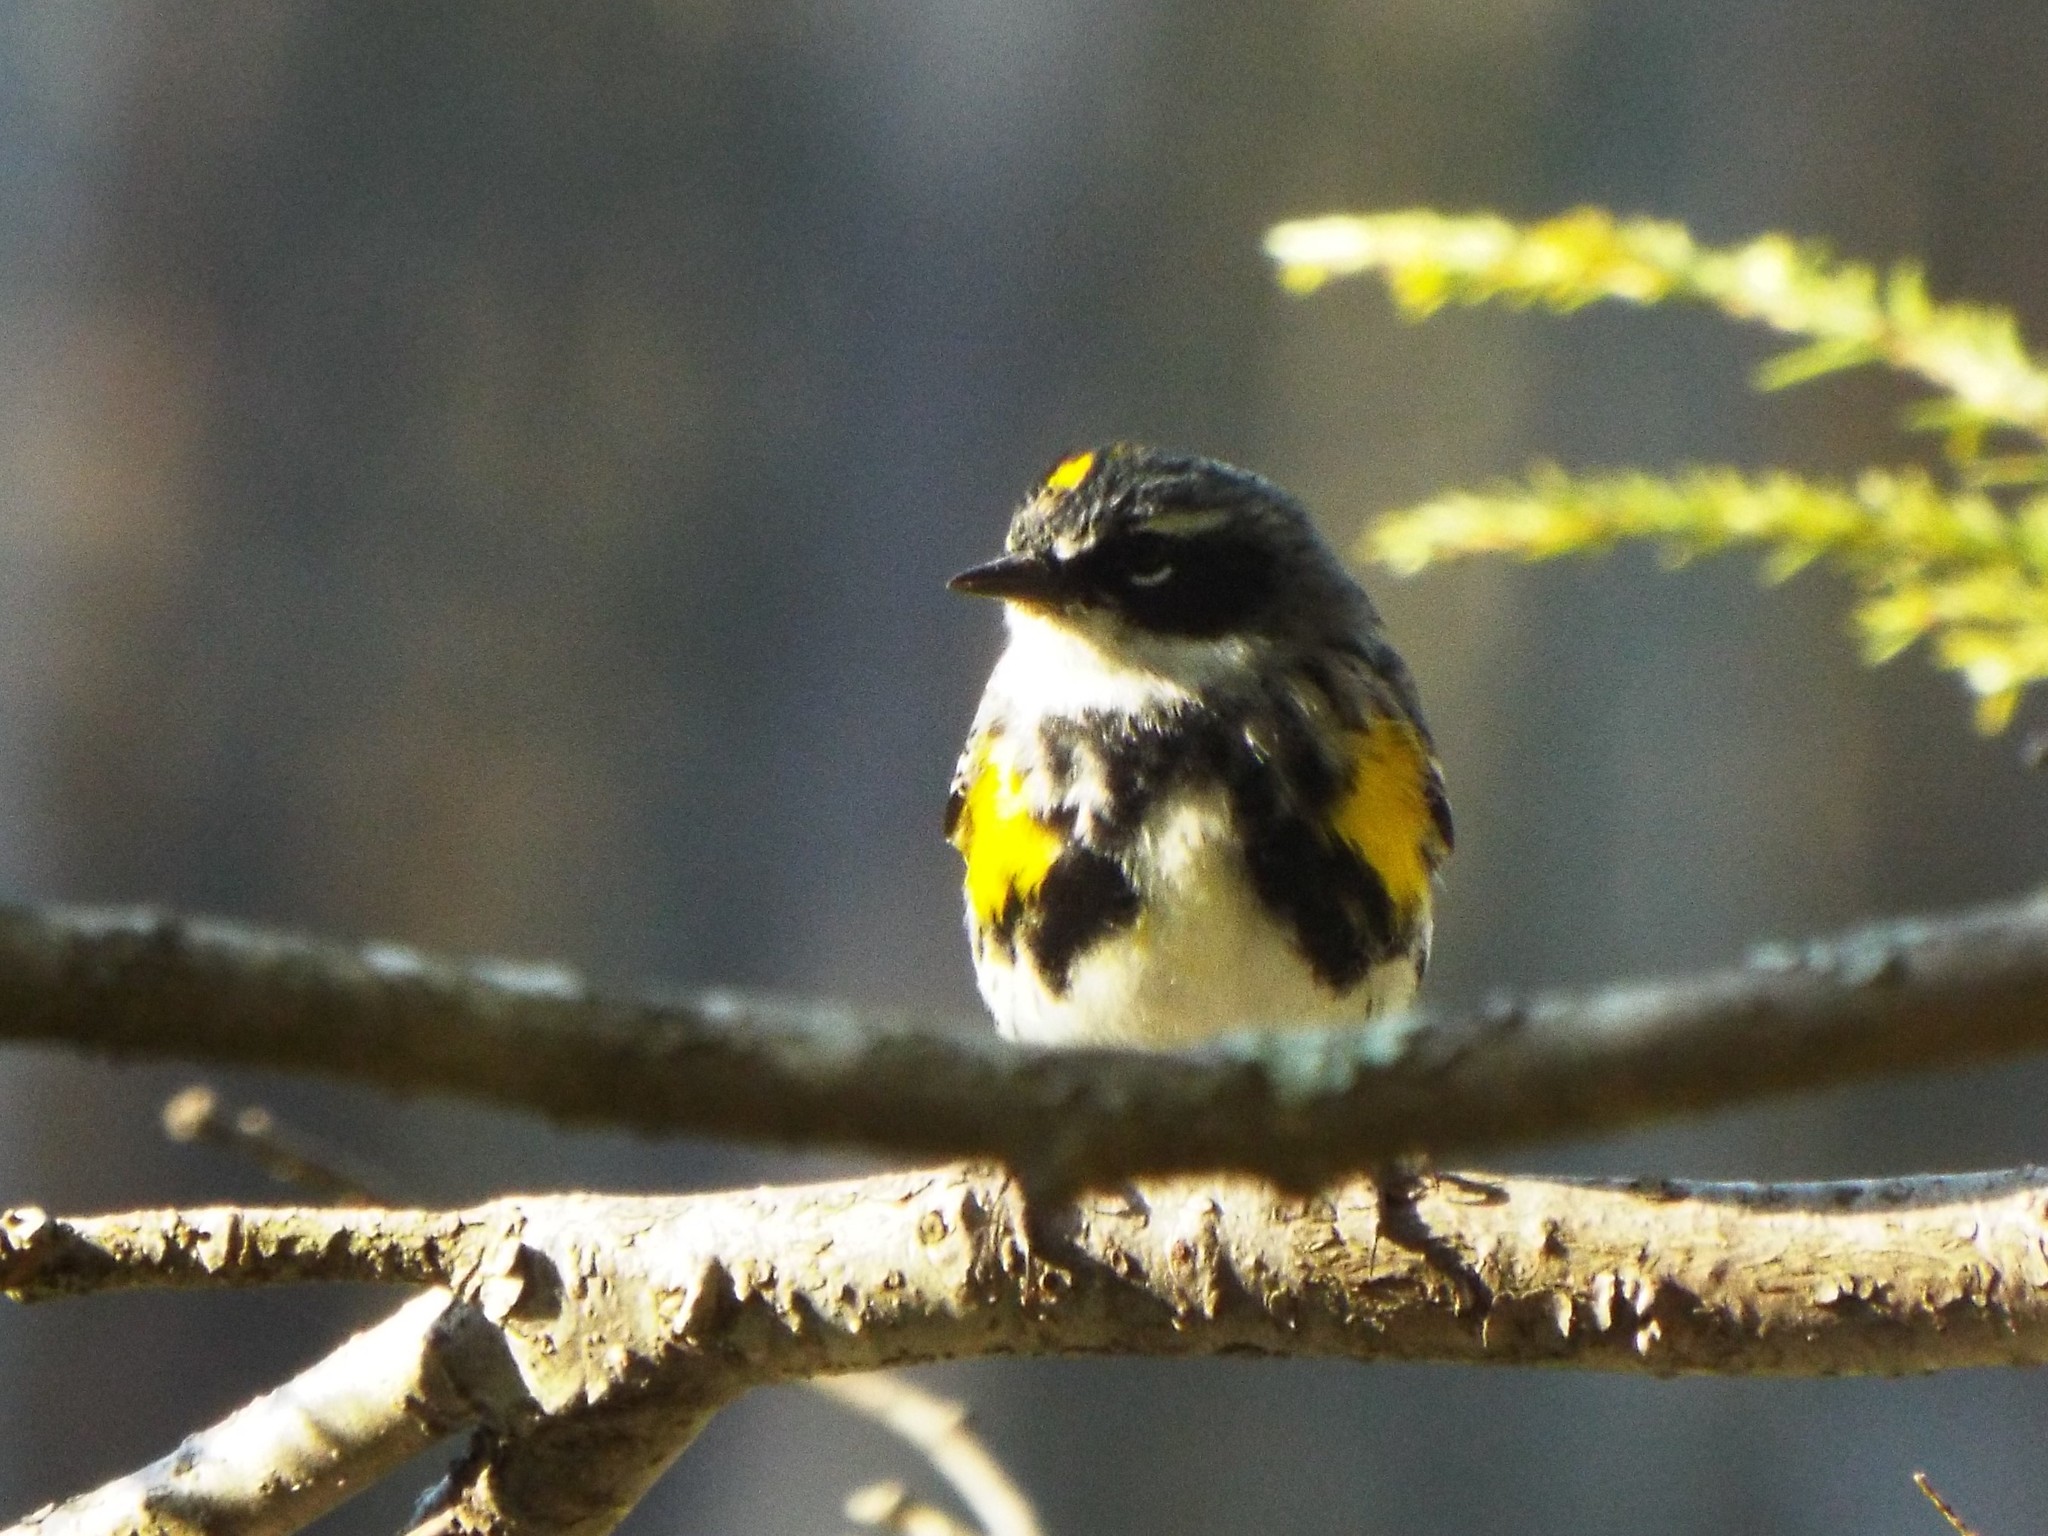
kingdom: Animalia
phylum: Chordata
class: Aves
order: Passeriformes
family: Parulidae
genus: Setophaga
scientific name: Setophaga coronata
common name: Myrtle warbler
